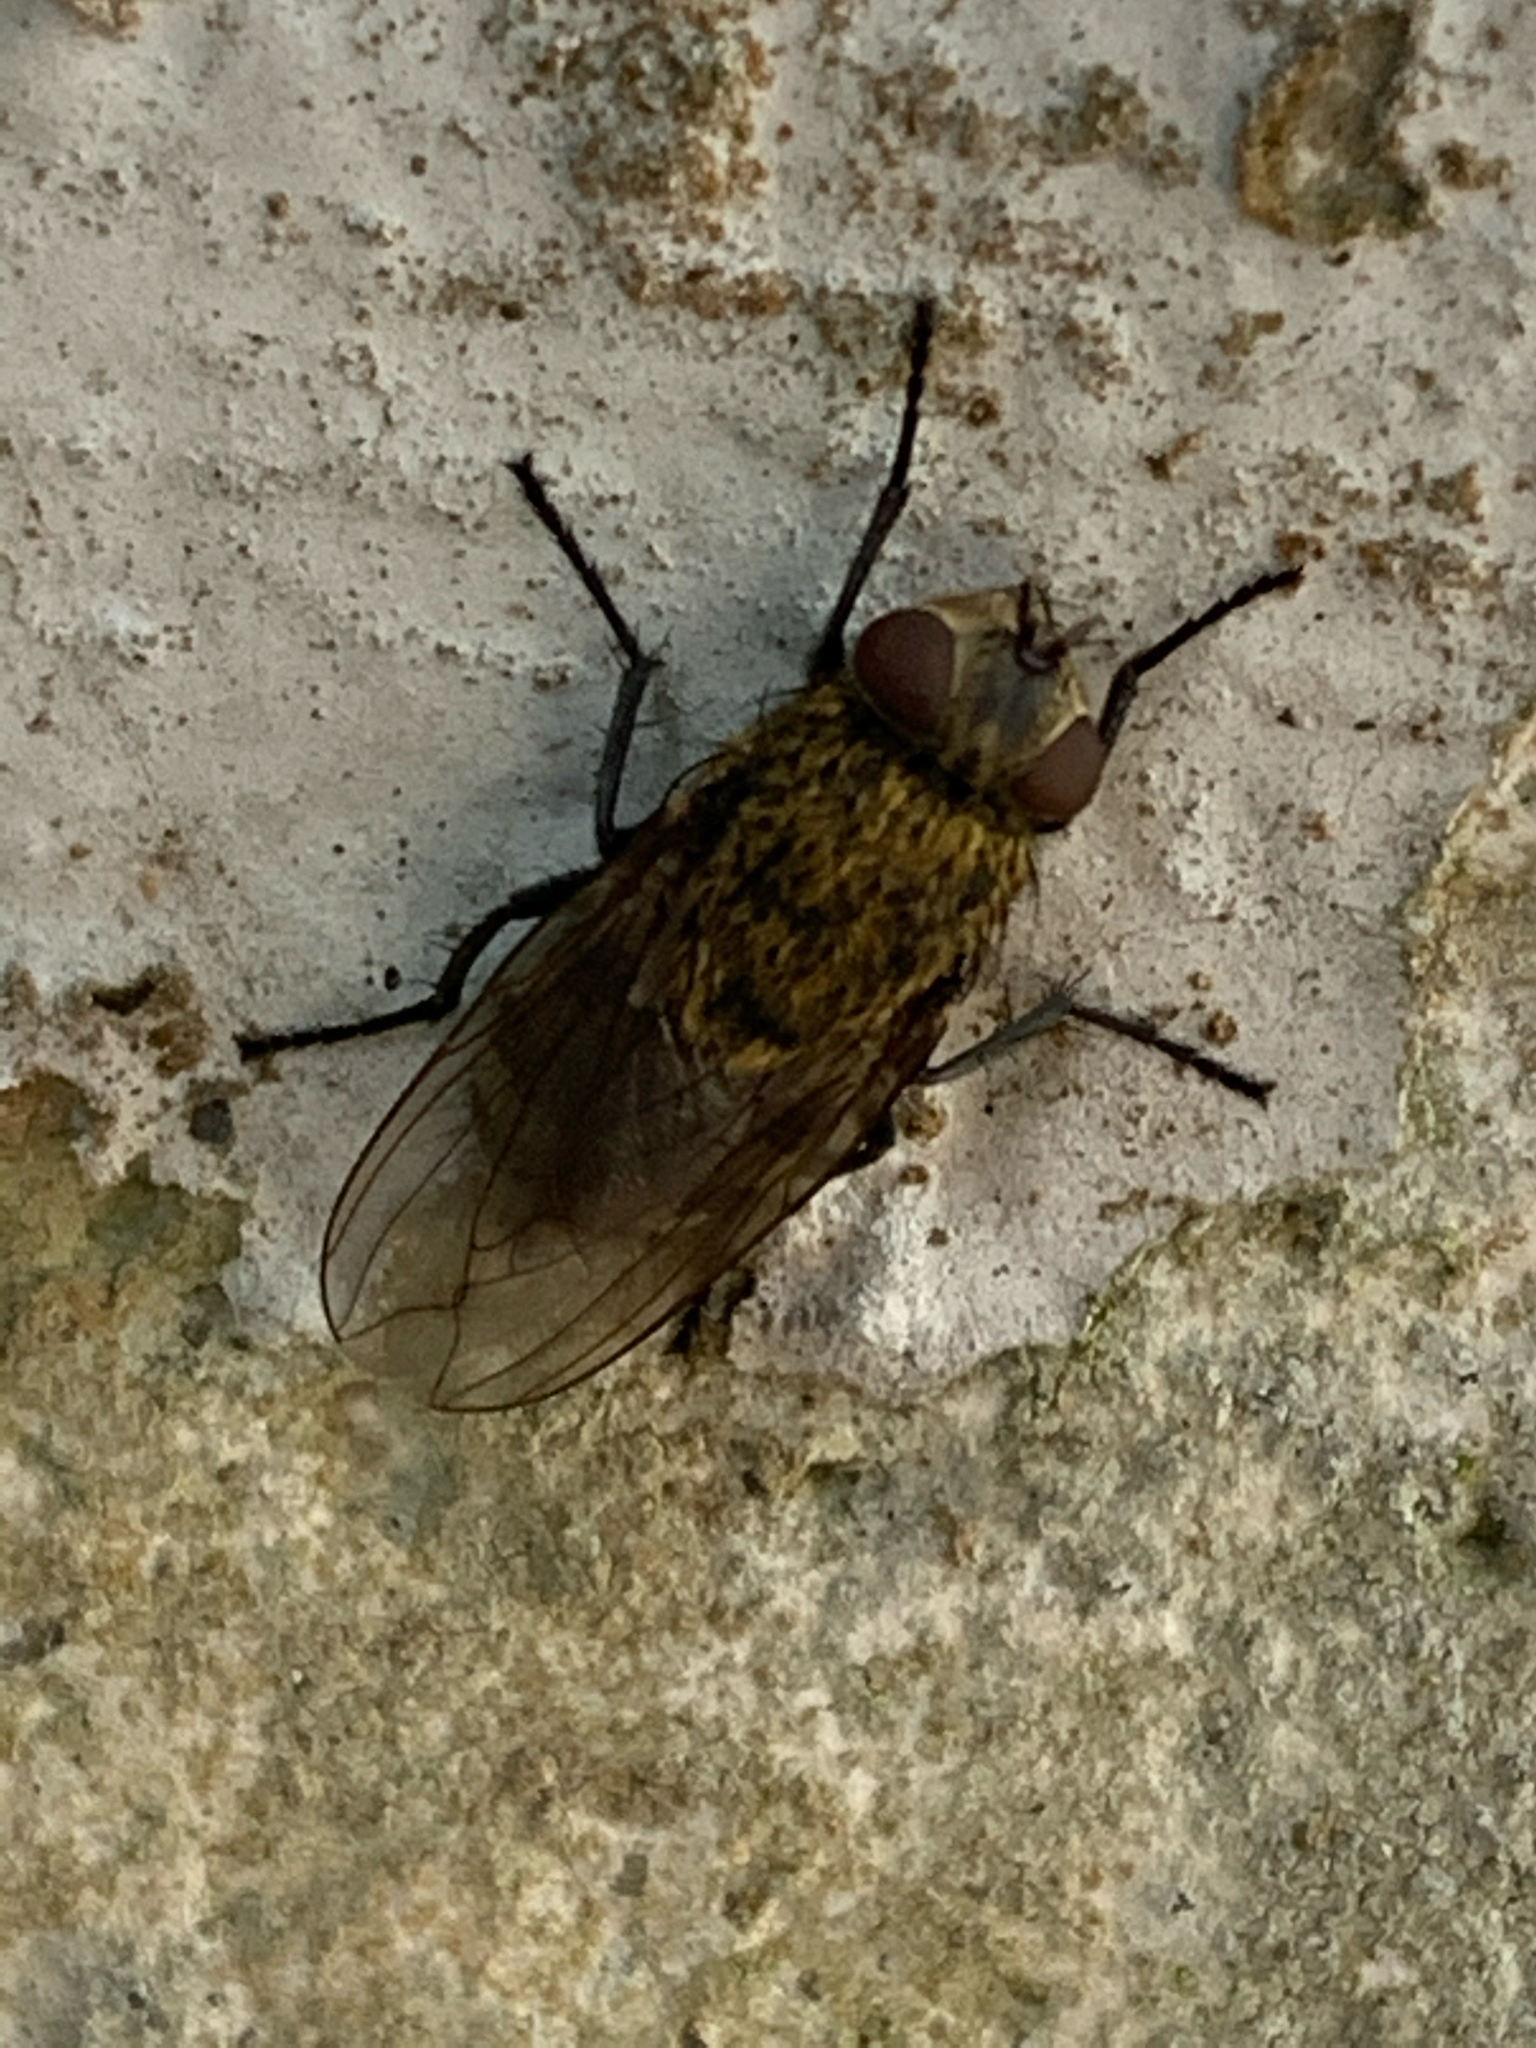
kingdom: Animalia
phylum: Arthropoda
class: Insecta
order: Diptera
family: Polleniidae
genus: Pollenia
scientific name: Pollenia
